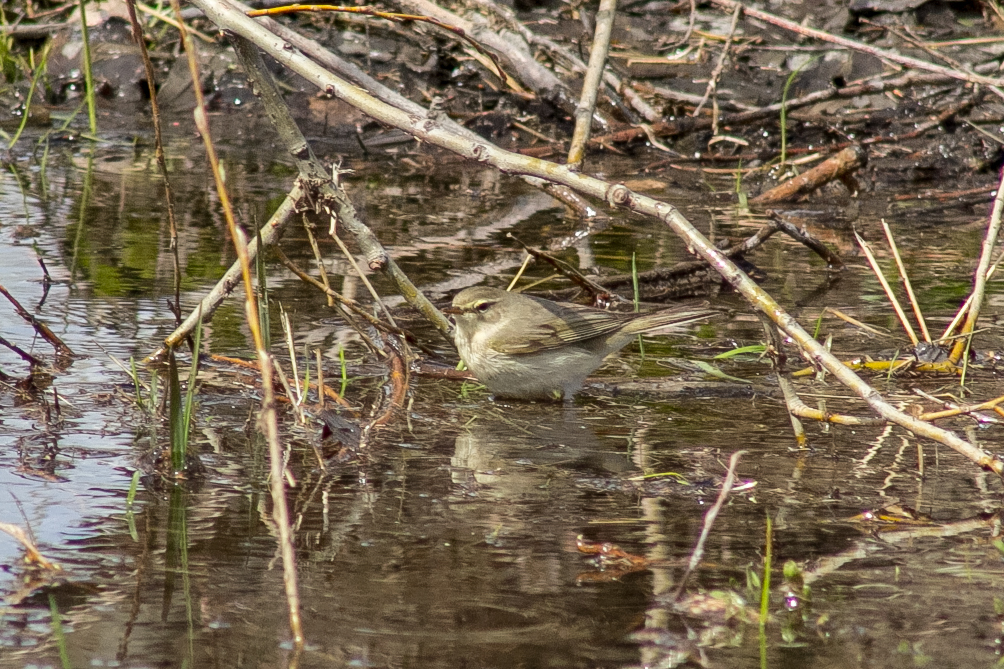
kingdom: Animalia
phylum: Chordata
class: Aves
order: Passeriformes
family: Phylloscopidae
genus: Phylloscopus
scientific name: Phylloscopus trochilus
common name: Willow warbler
